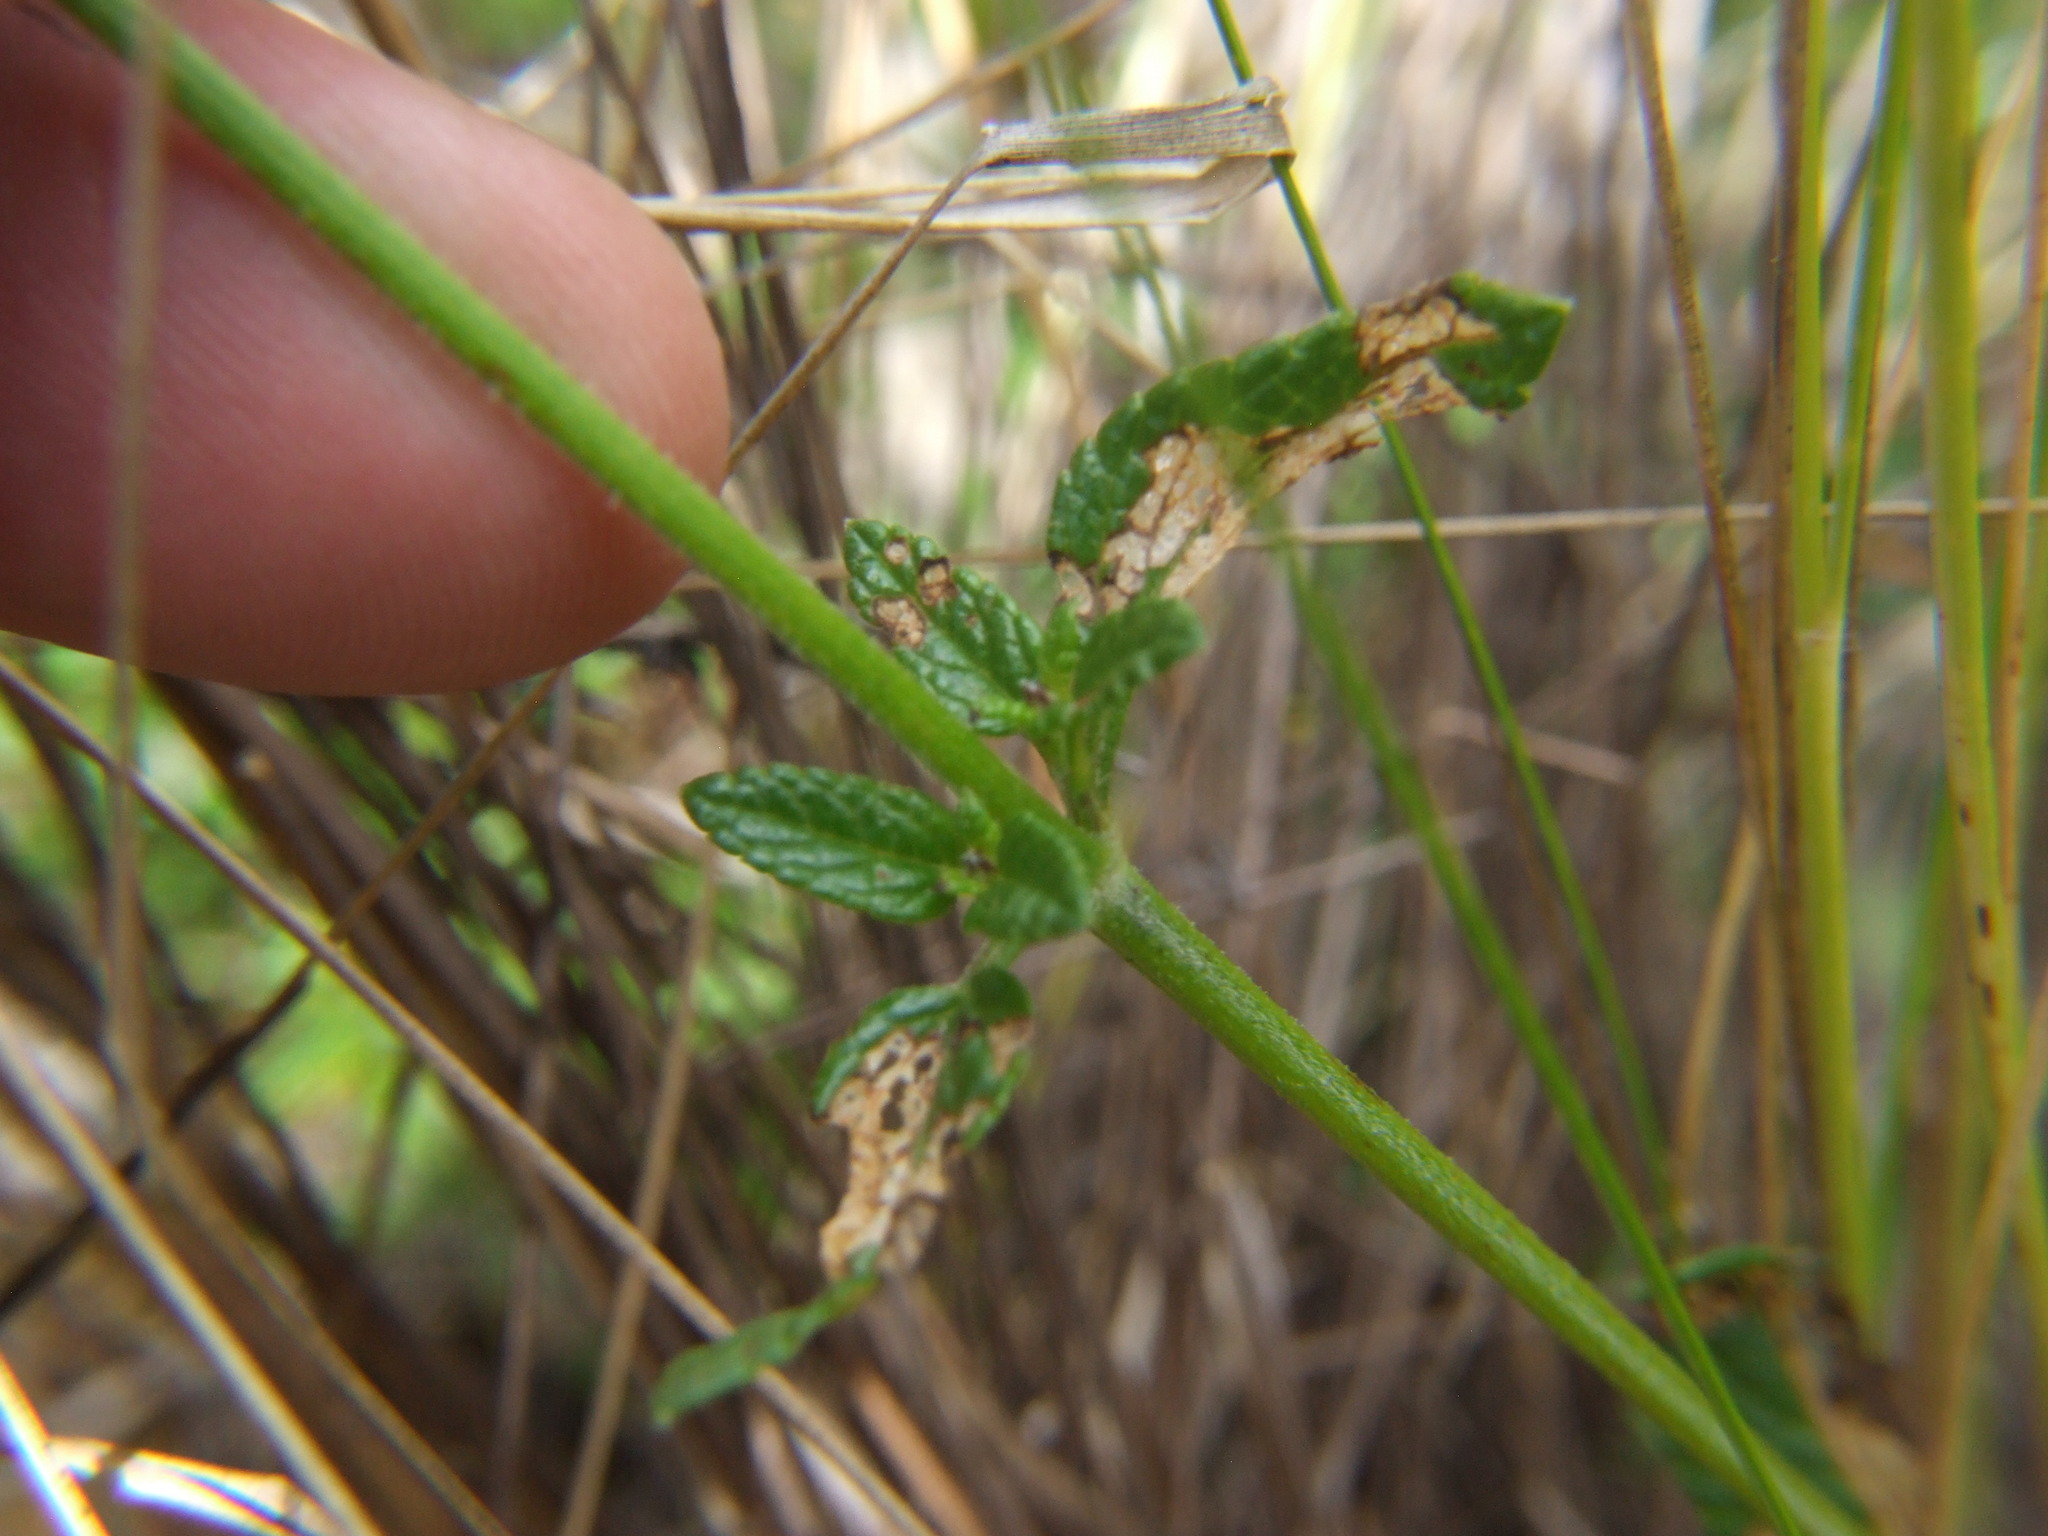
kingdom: Plantae
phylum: Tracheophyta
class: Magnoliopsida
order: Lamiales
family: Lamiaceae
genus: Salvia
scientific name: Salvia oppositiflora
